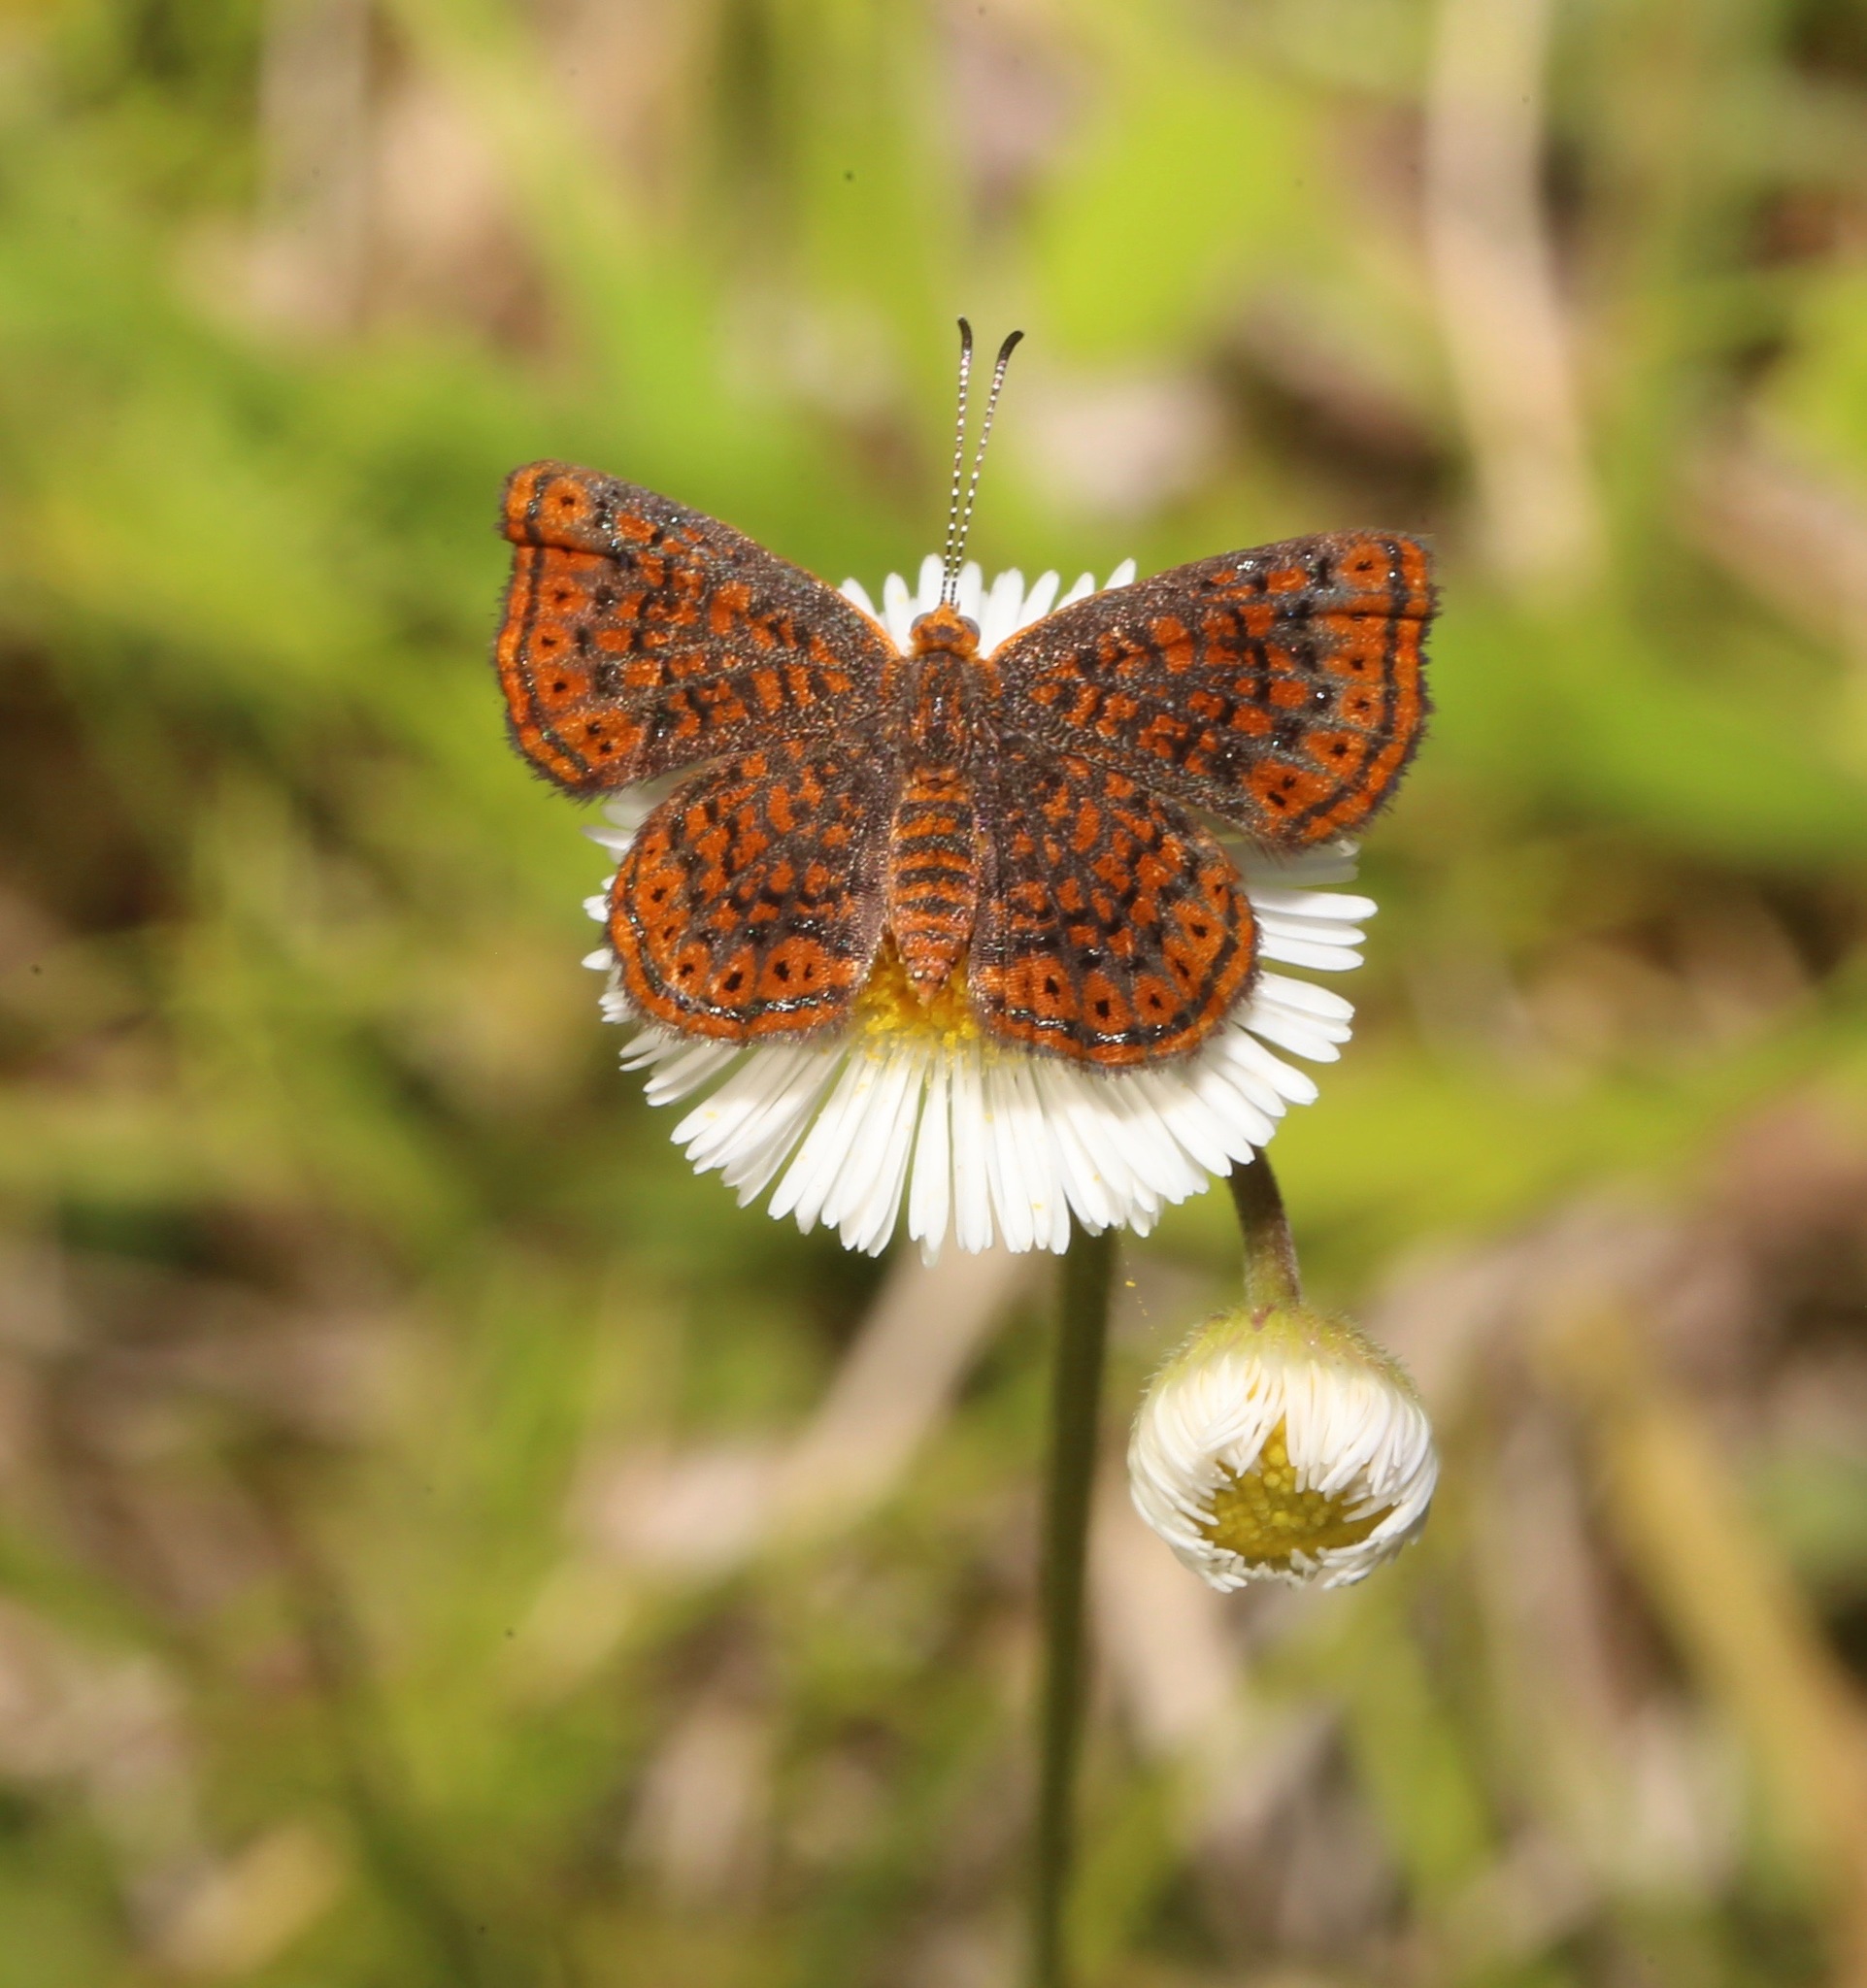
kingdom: Animalia
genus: Calephelis
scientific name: Calephelis virginiensis
